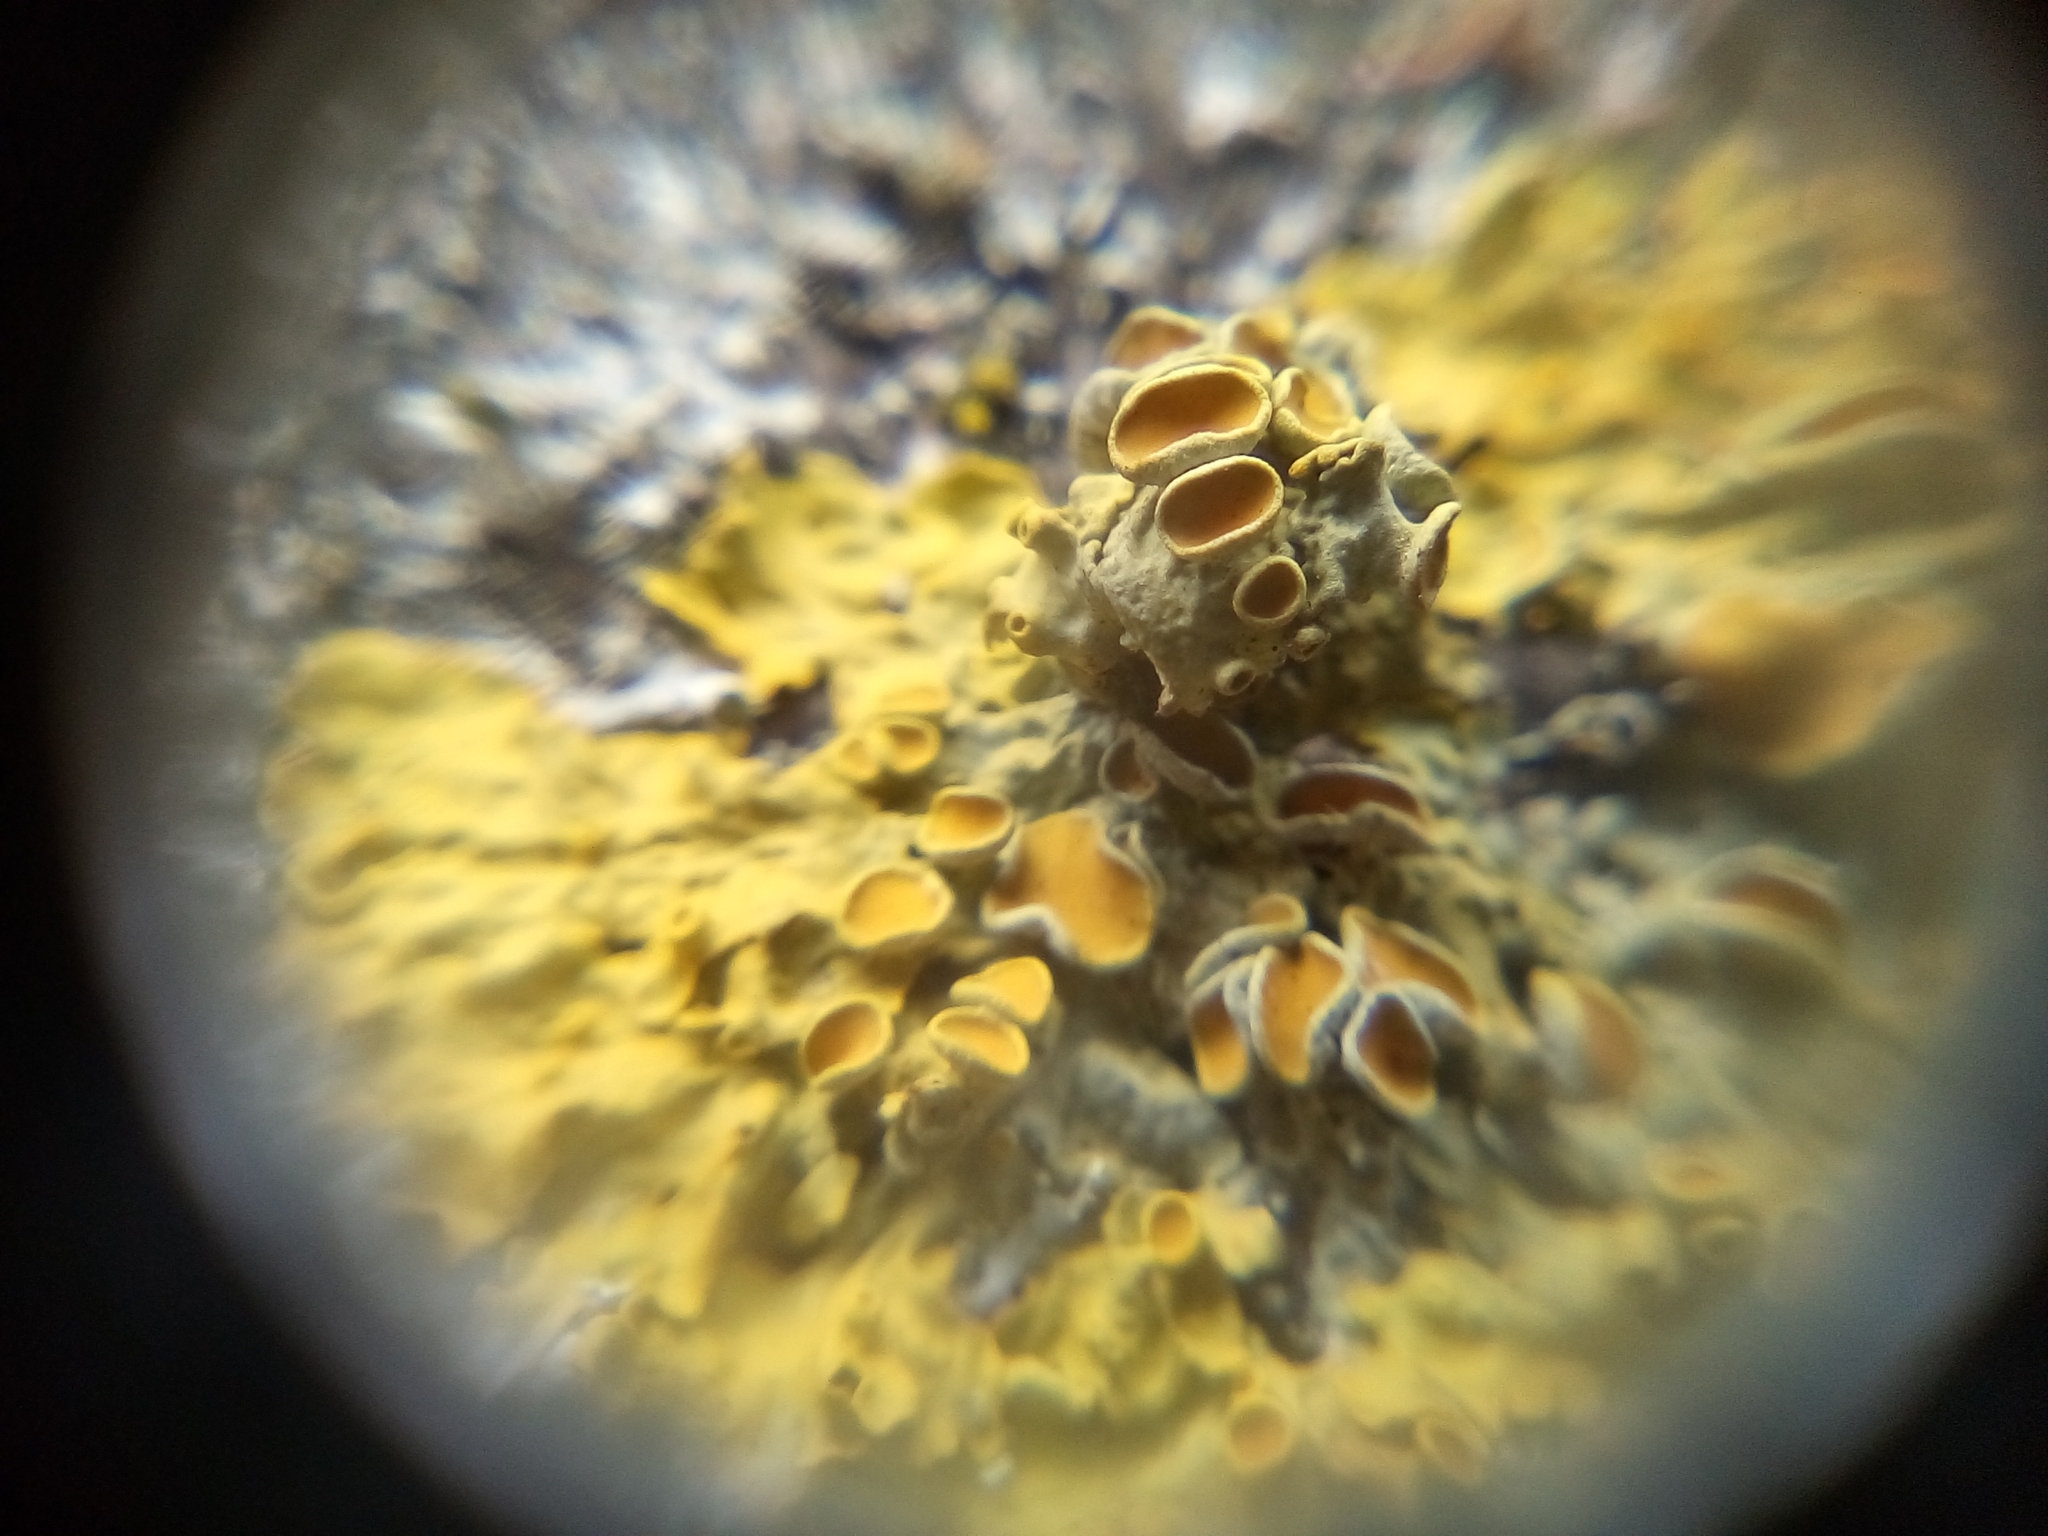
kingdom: Fungi
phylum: Ascomycota
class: Lecanoromycetes
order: Teloschistales
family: Teloschistaceae
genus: Xanthoria
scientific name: Xanthoria parietina
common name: Common orange lichen
